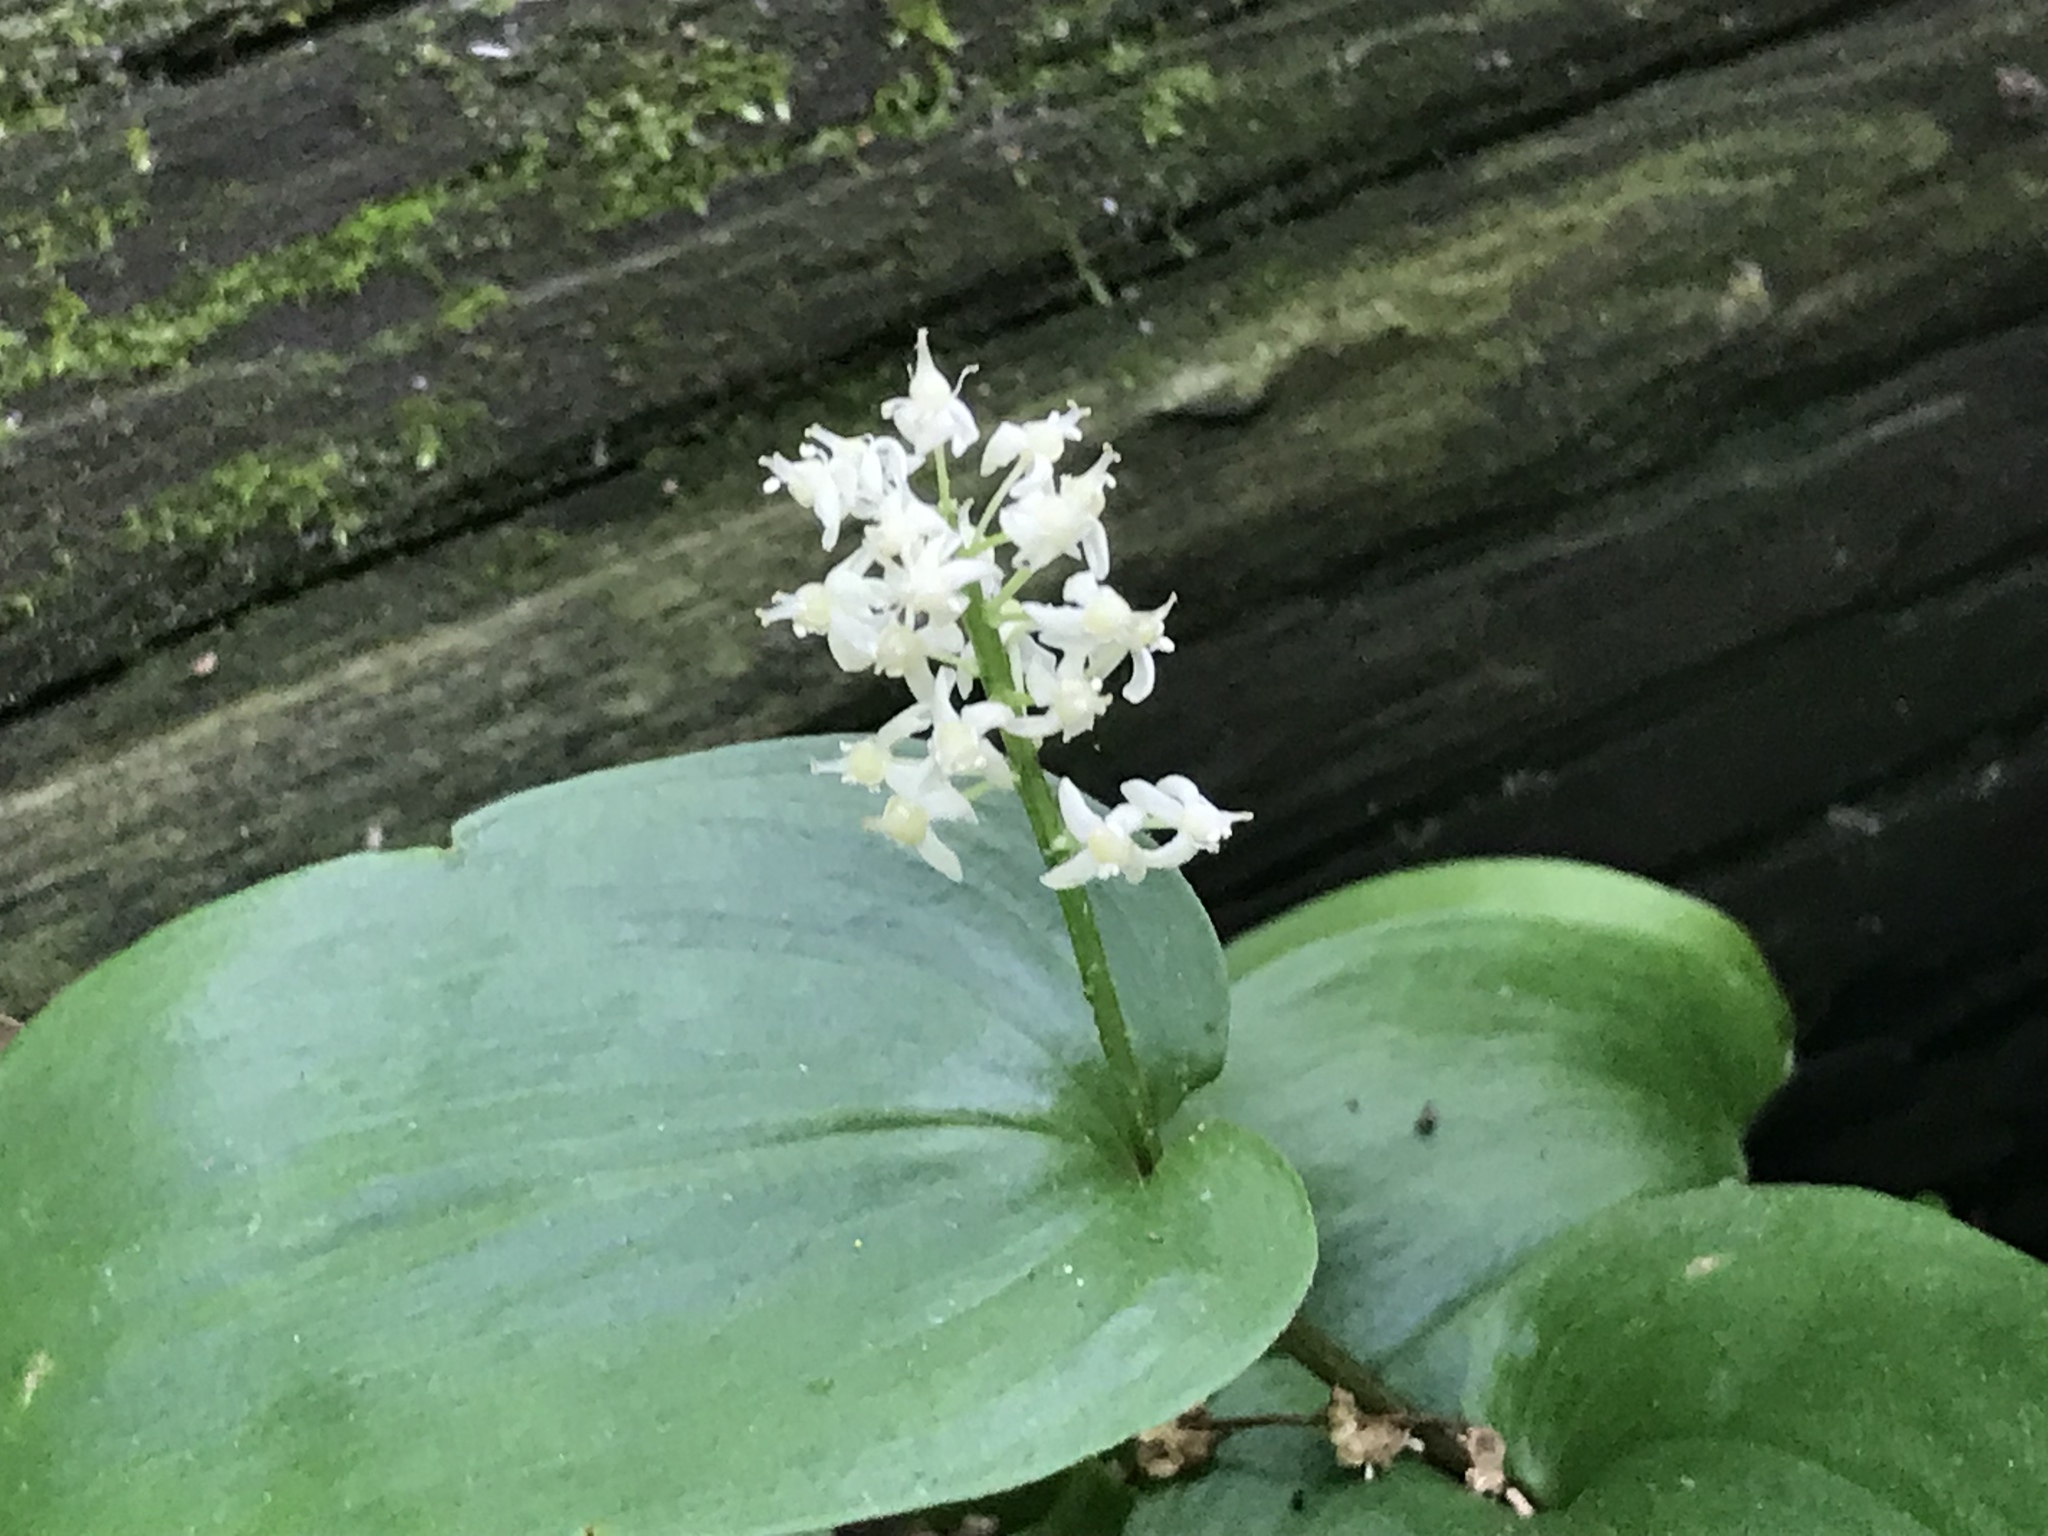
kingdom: Plantae
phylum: Tracheophyta
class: Liliopsida
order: Asparagales
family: Asparagaceae
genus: Maianthemum
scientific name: Maianthemum canadense
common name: False lily-of-the-valley
